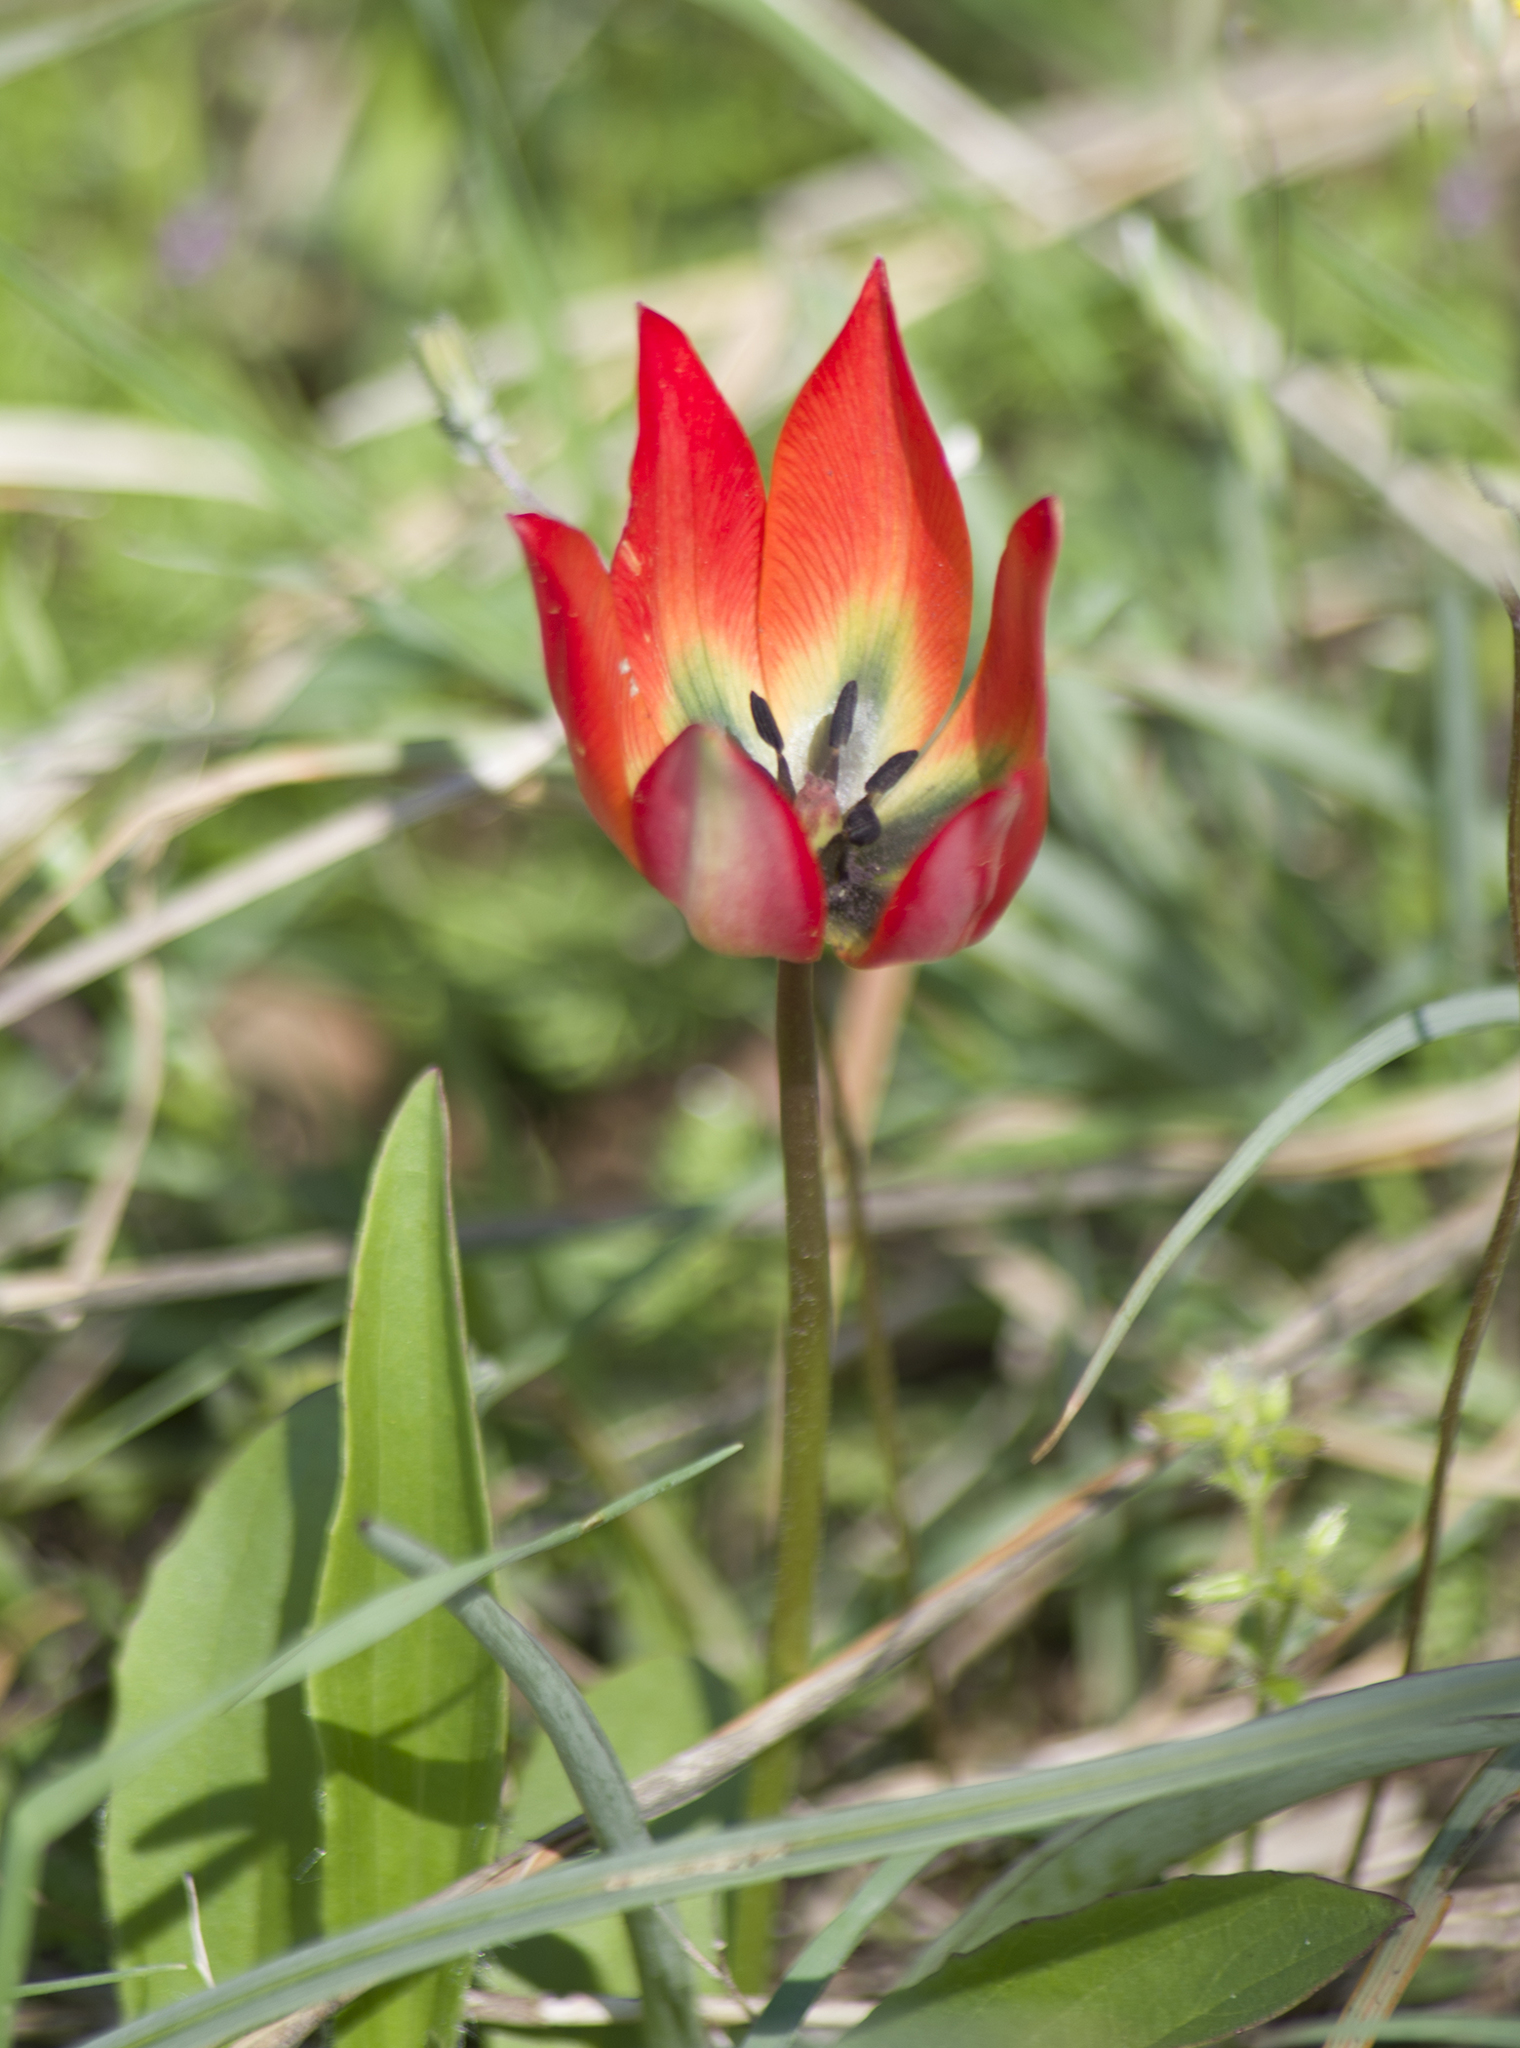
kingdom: Plantae
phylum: Tracheophyta
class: Liliopsida
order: Liliales
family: Liliaceae
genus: Tulipa
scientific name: Tulipa orphanidea
